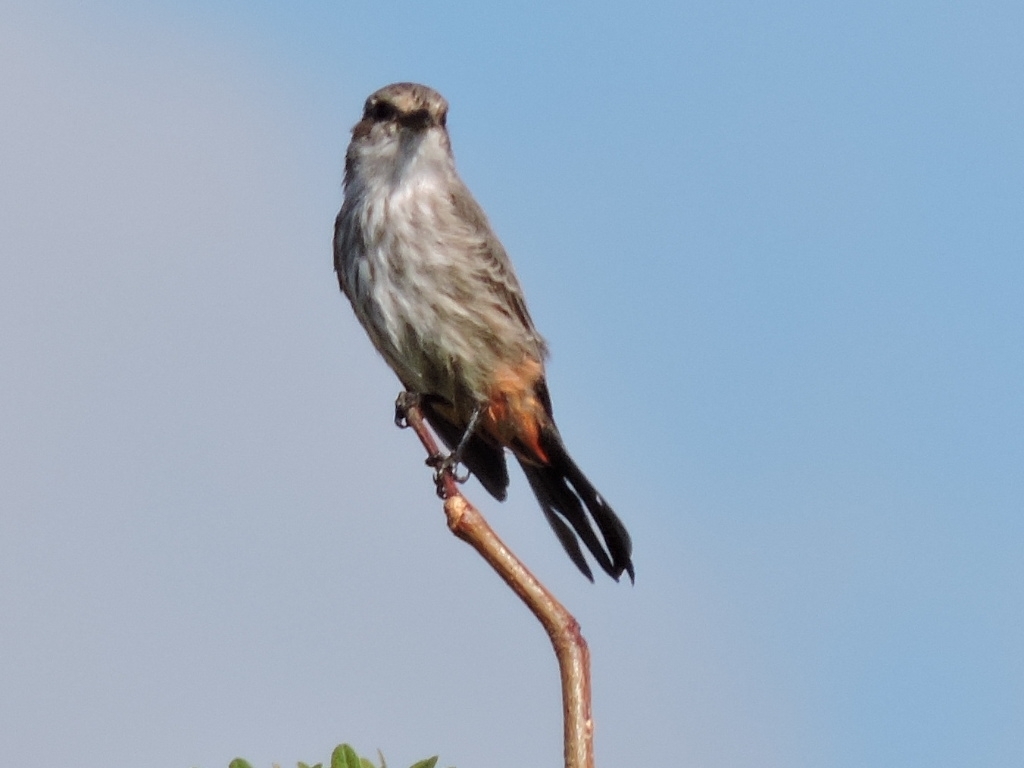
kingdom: Animalia
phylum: Chordata
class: Aves
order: Passeriformes
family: Tyrannidae
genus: Pyrocephalus
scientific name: Pyrocephalus rubinus
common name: Vermilion flycatcher
